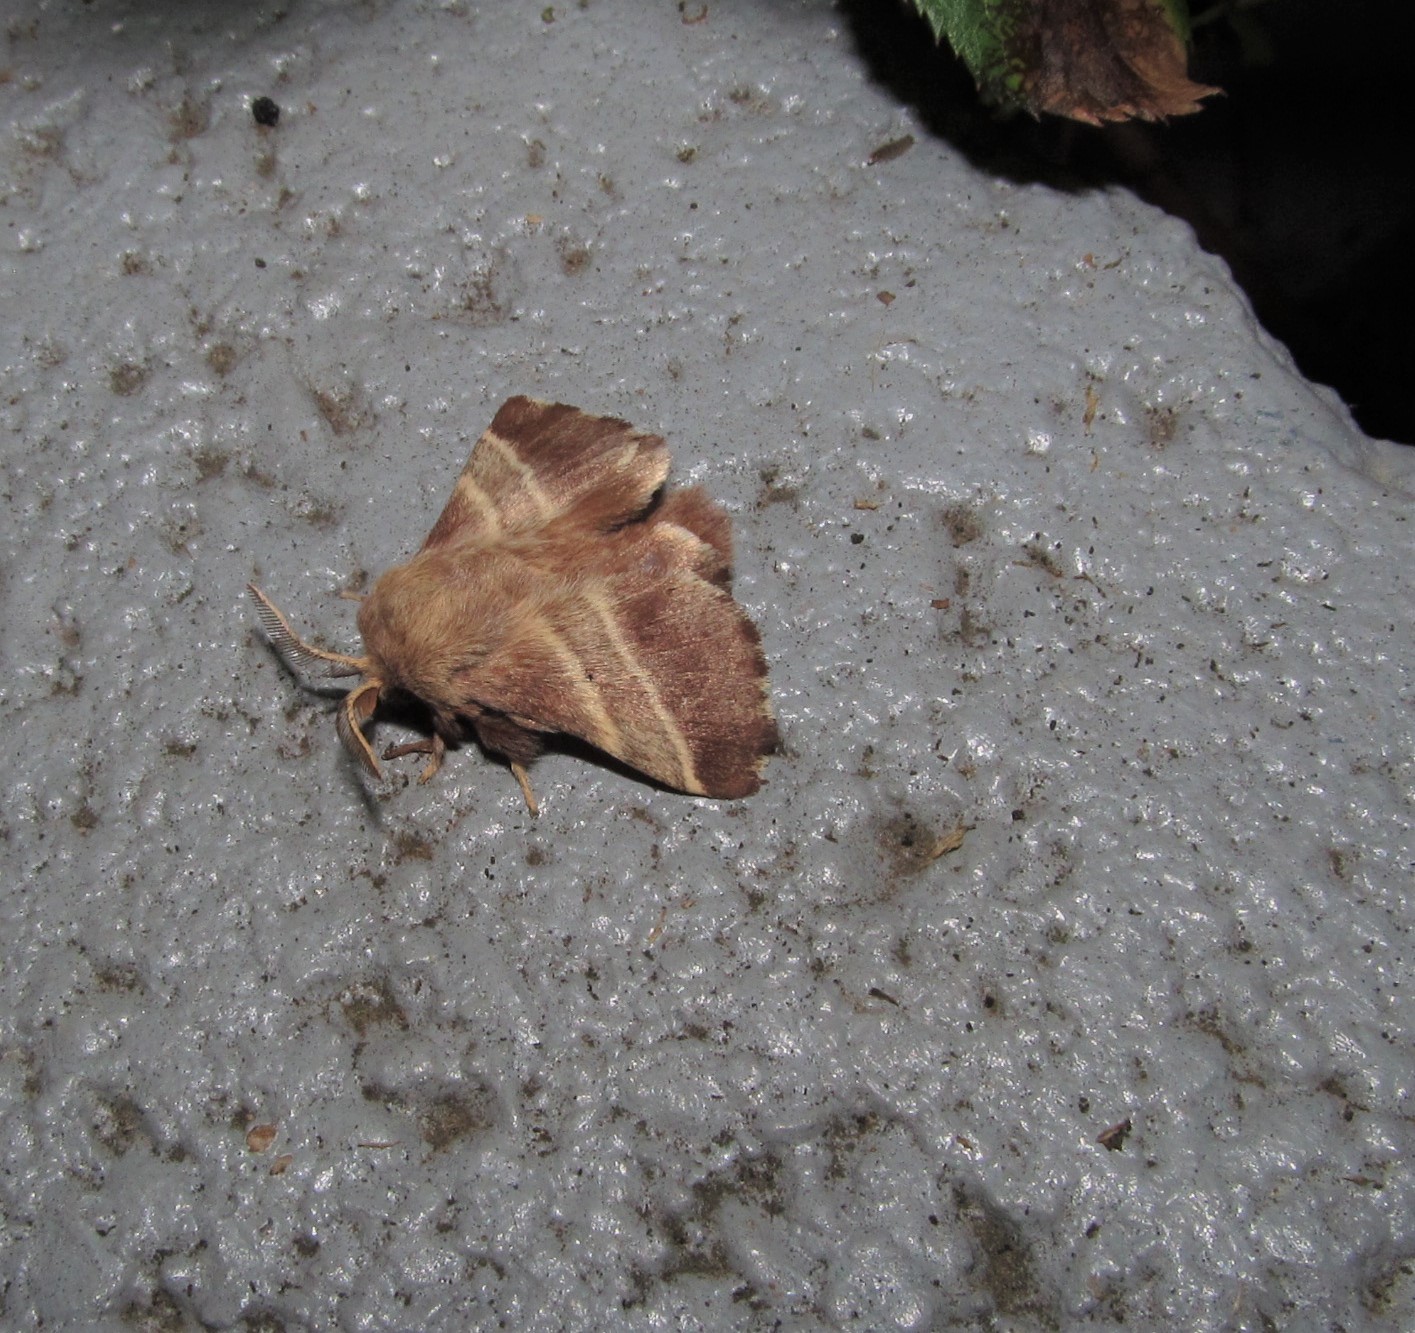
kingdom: Animalia
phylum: Arthropoda
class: Insecta
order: Lepidoptera
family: Lasiocampidae
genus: Malacosoma
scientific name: Malacosoma americana
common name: Eastern tent caterpillar moth
